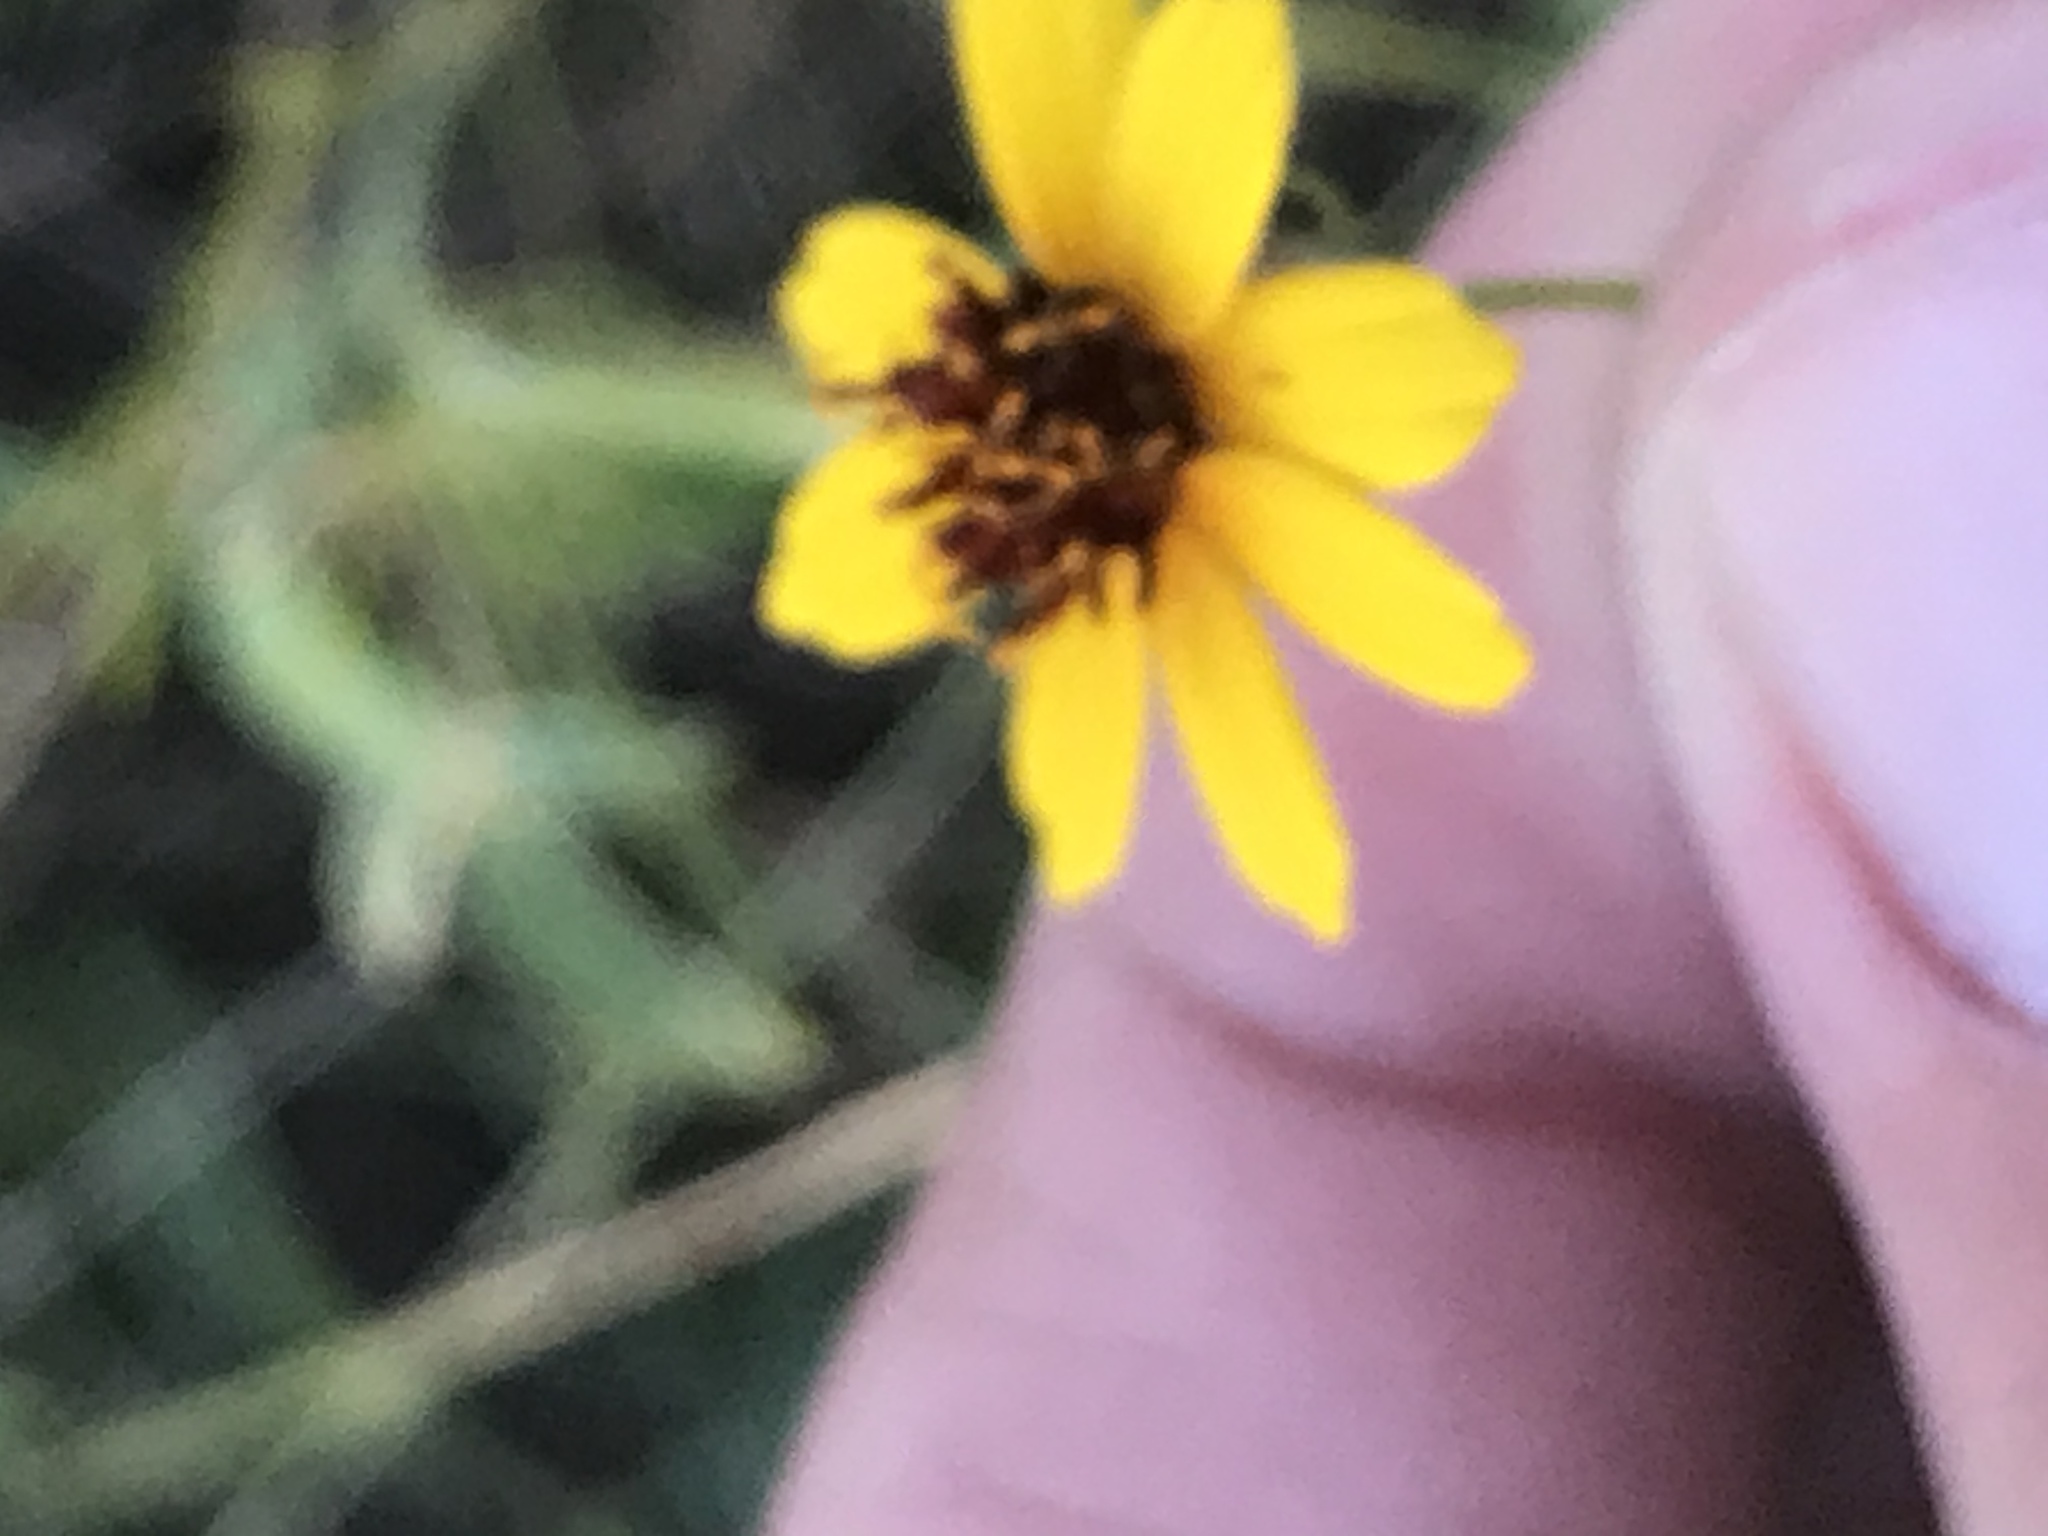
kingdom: Plantae
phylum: Tracheophyta
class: Magnoliopsida
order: Asterales
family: Asteraceae
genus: Thelesperma
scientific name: Thelesperma filifolium
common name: Stiff greenthread
